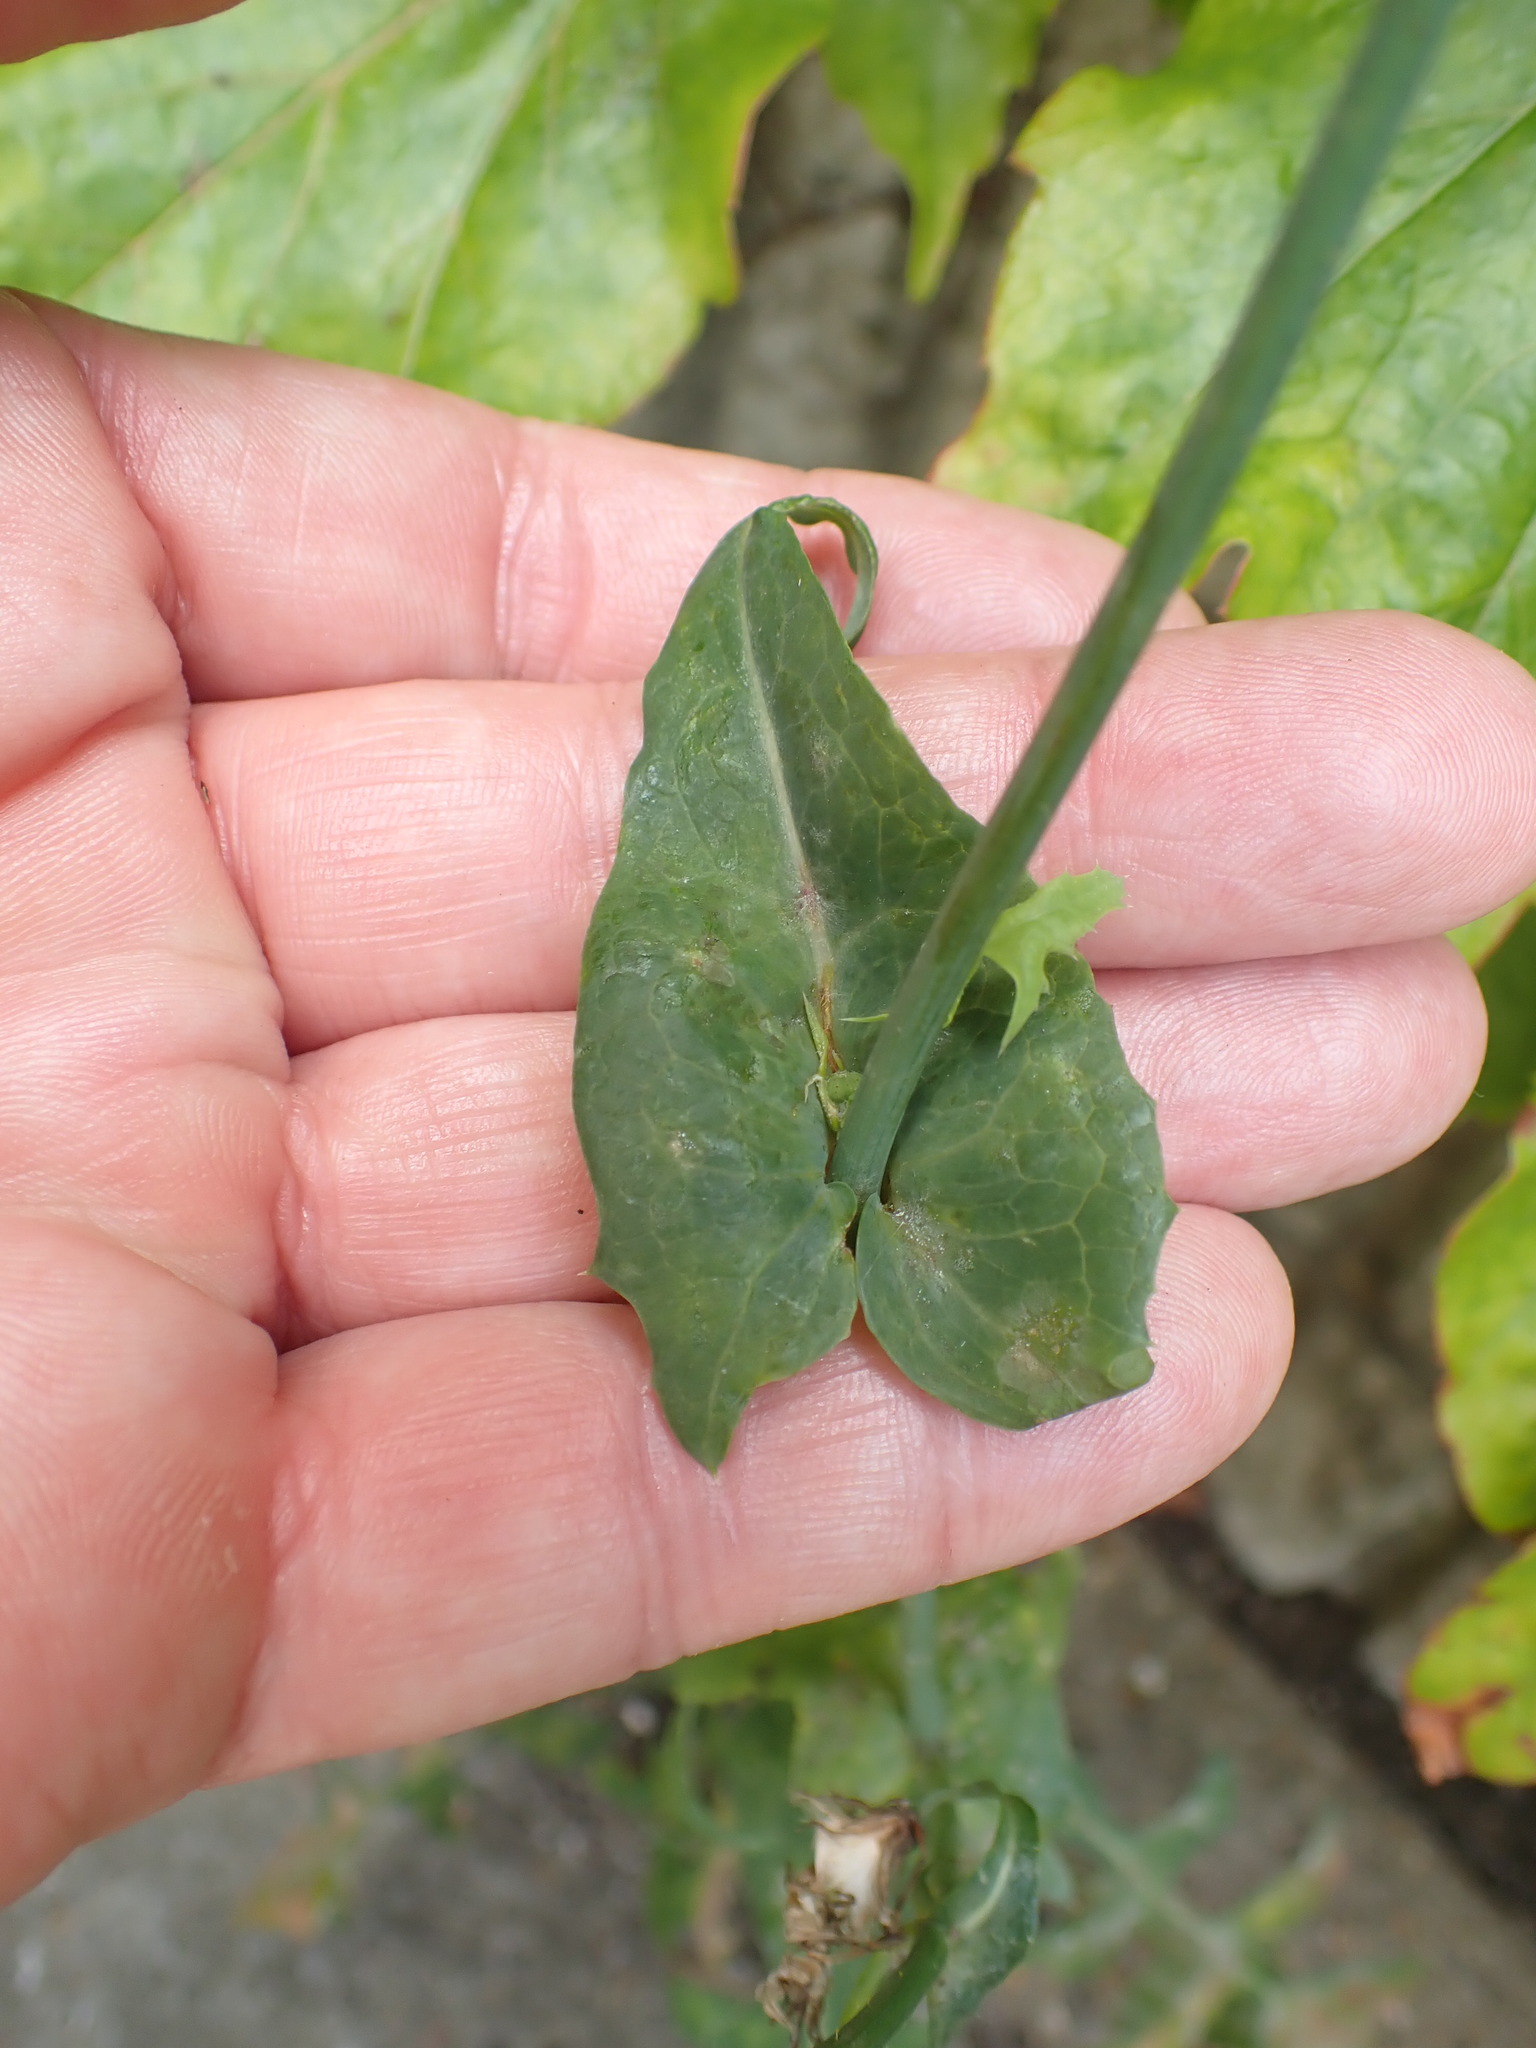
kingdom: Plantae
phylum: Tracheophyta
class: Magnoliopsida
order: Asterales
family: Asteraceae
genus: Sonchus
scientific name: Sonchus oleraceus
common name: Common sowthistle
